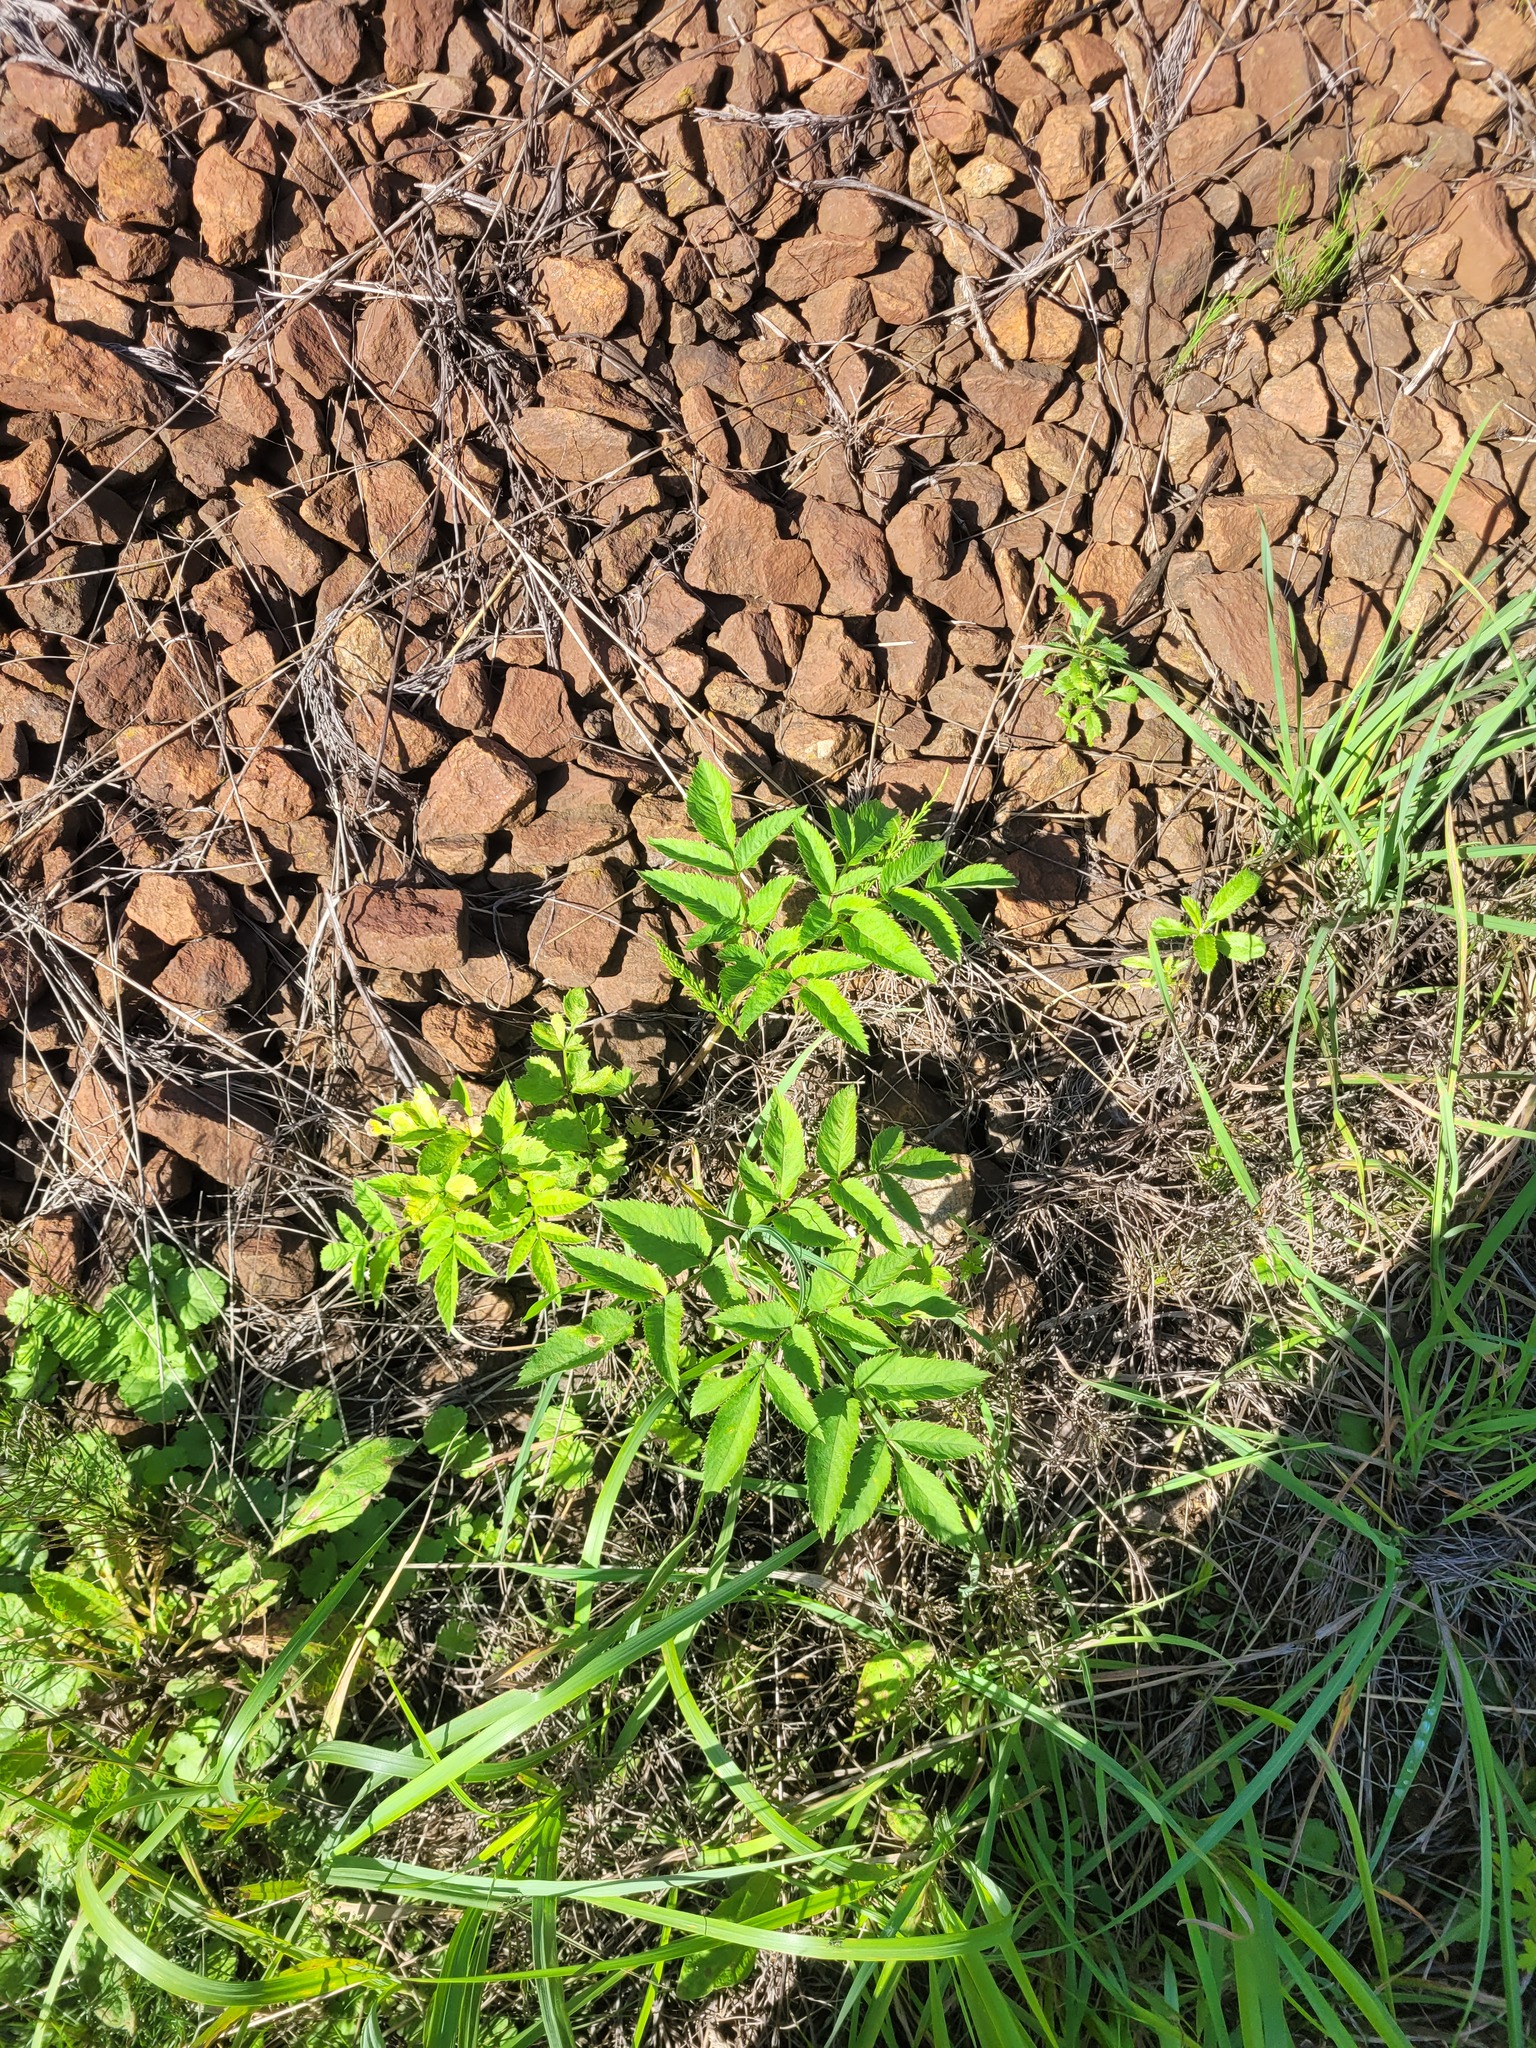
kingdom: Plantae
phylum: Tracheophyta
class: Magnoliopsida
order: Apiales
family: Apiaceae
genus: Angelica
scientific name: Angelica sylvestris
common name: Wild angelica
